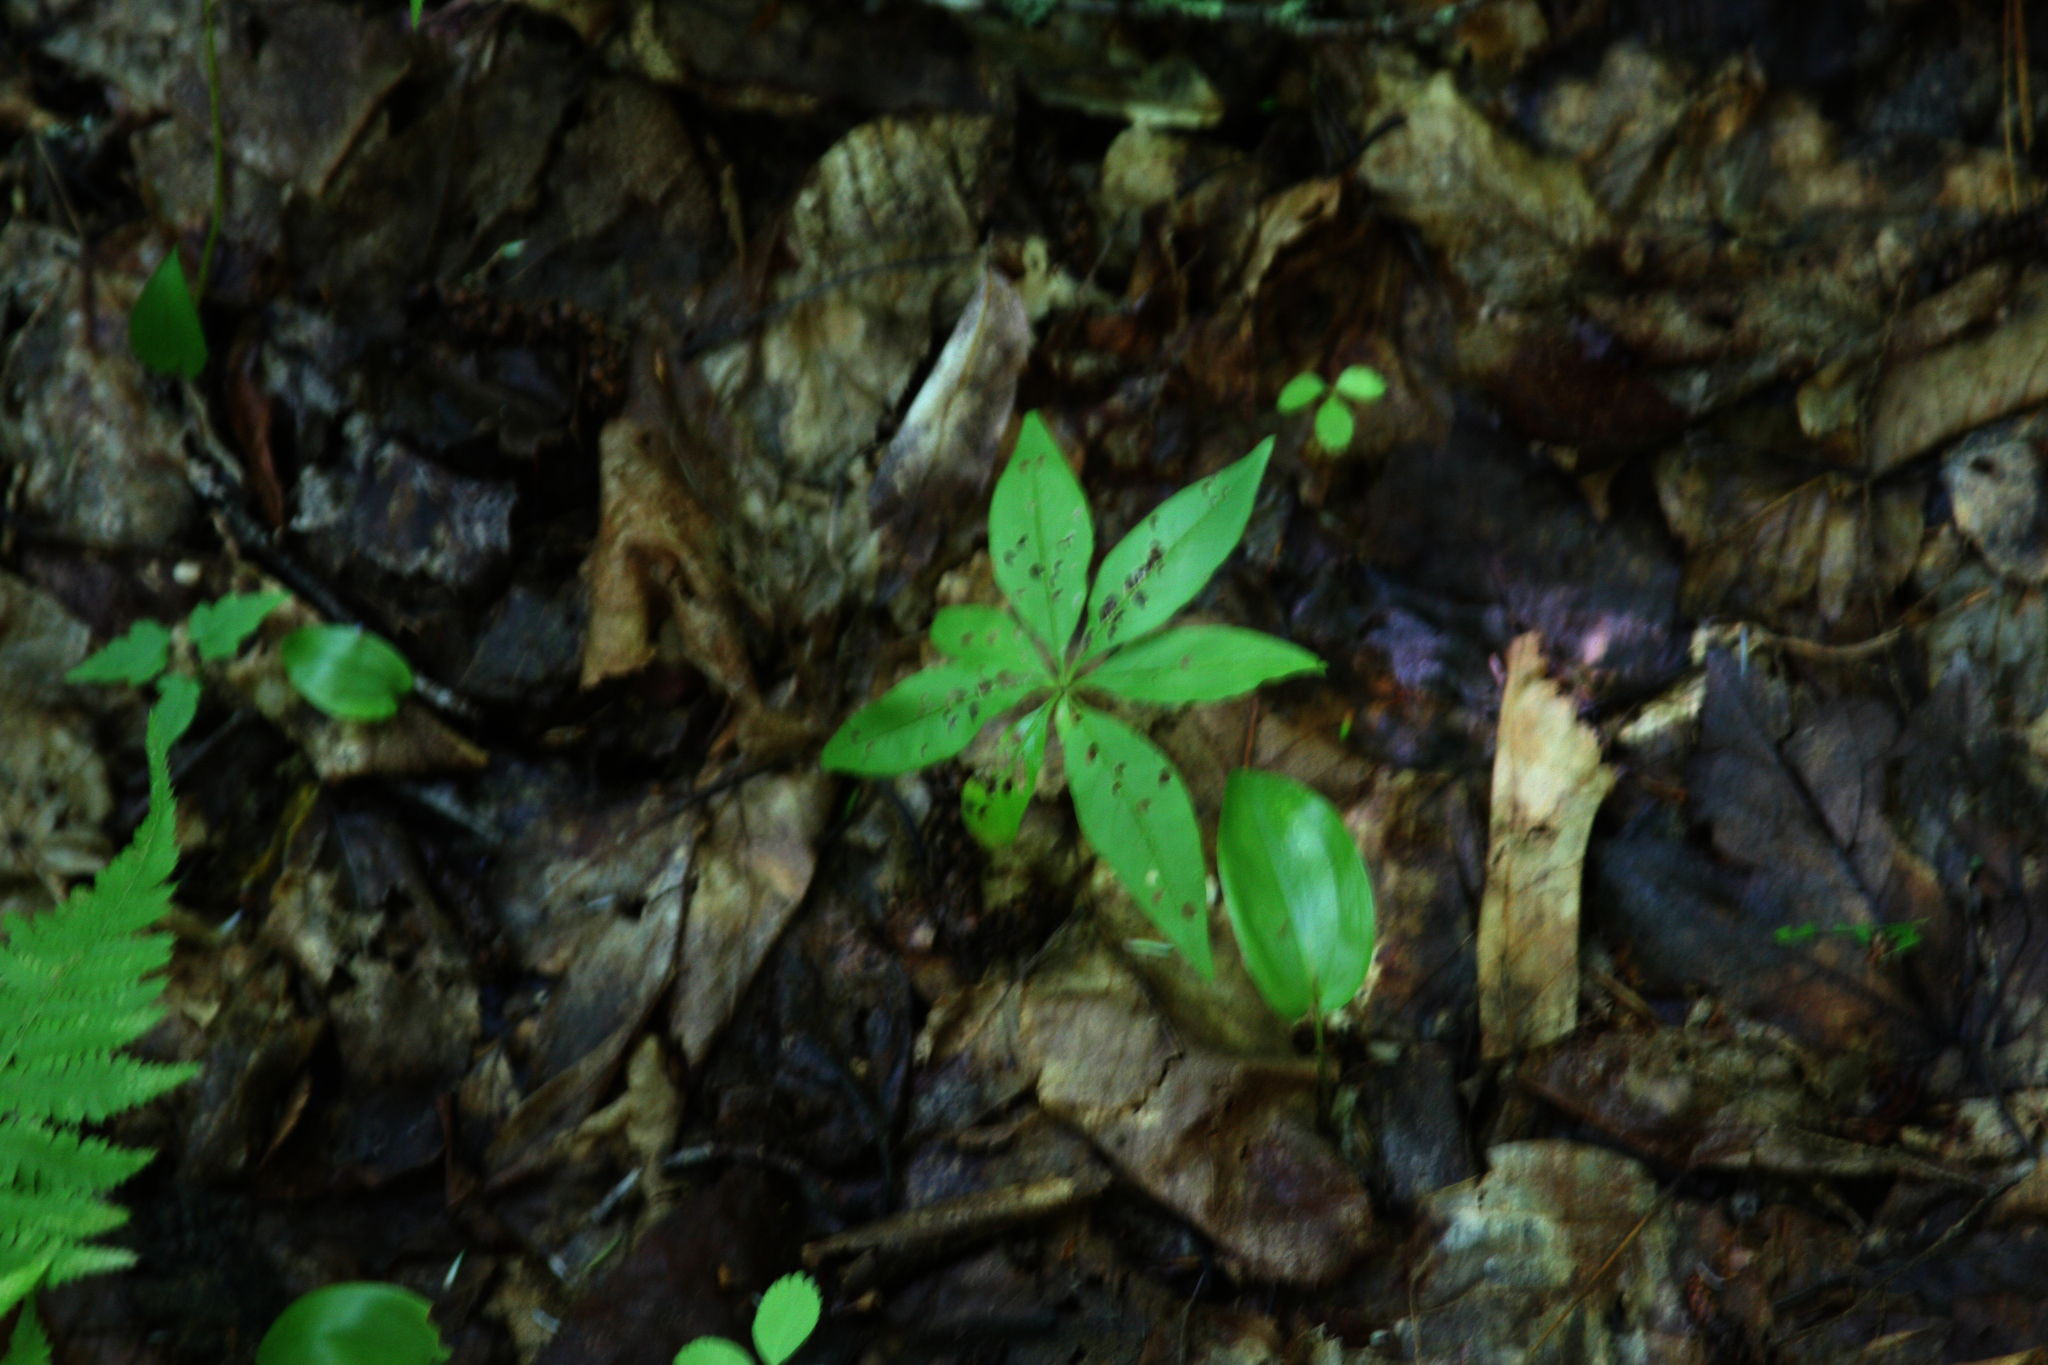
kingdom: Plantae
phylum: Tracheophyta
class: Magnoliopsida
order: Ericales
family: Primulaceae
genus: Lysimachia
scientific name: Lysimachia borealis
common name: American starflower
